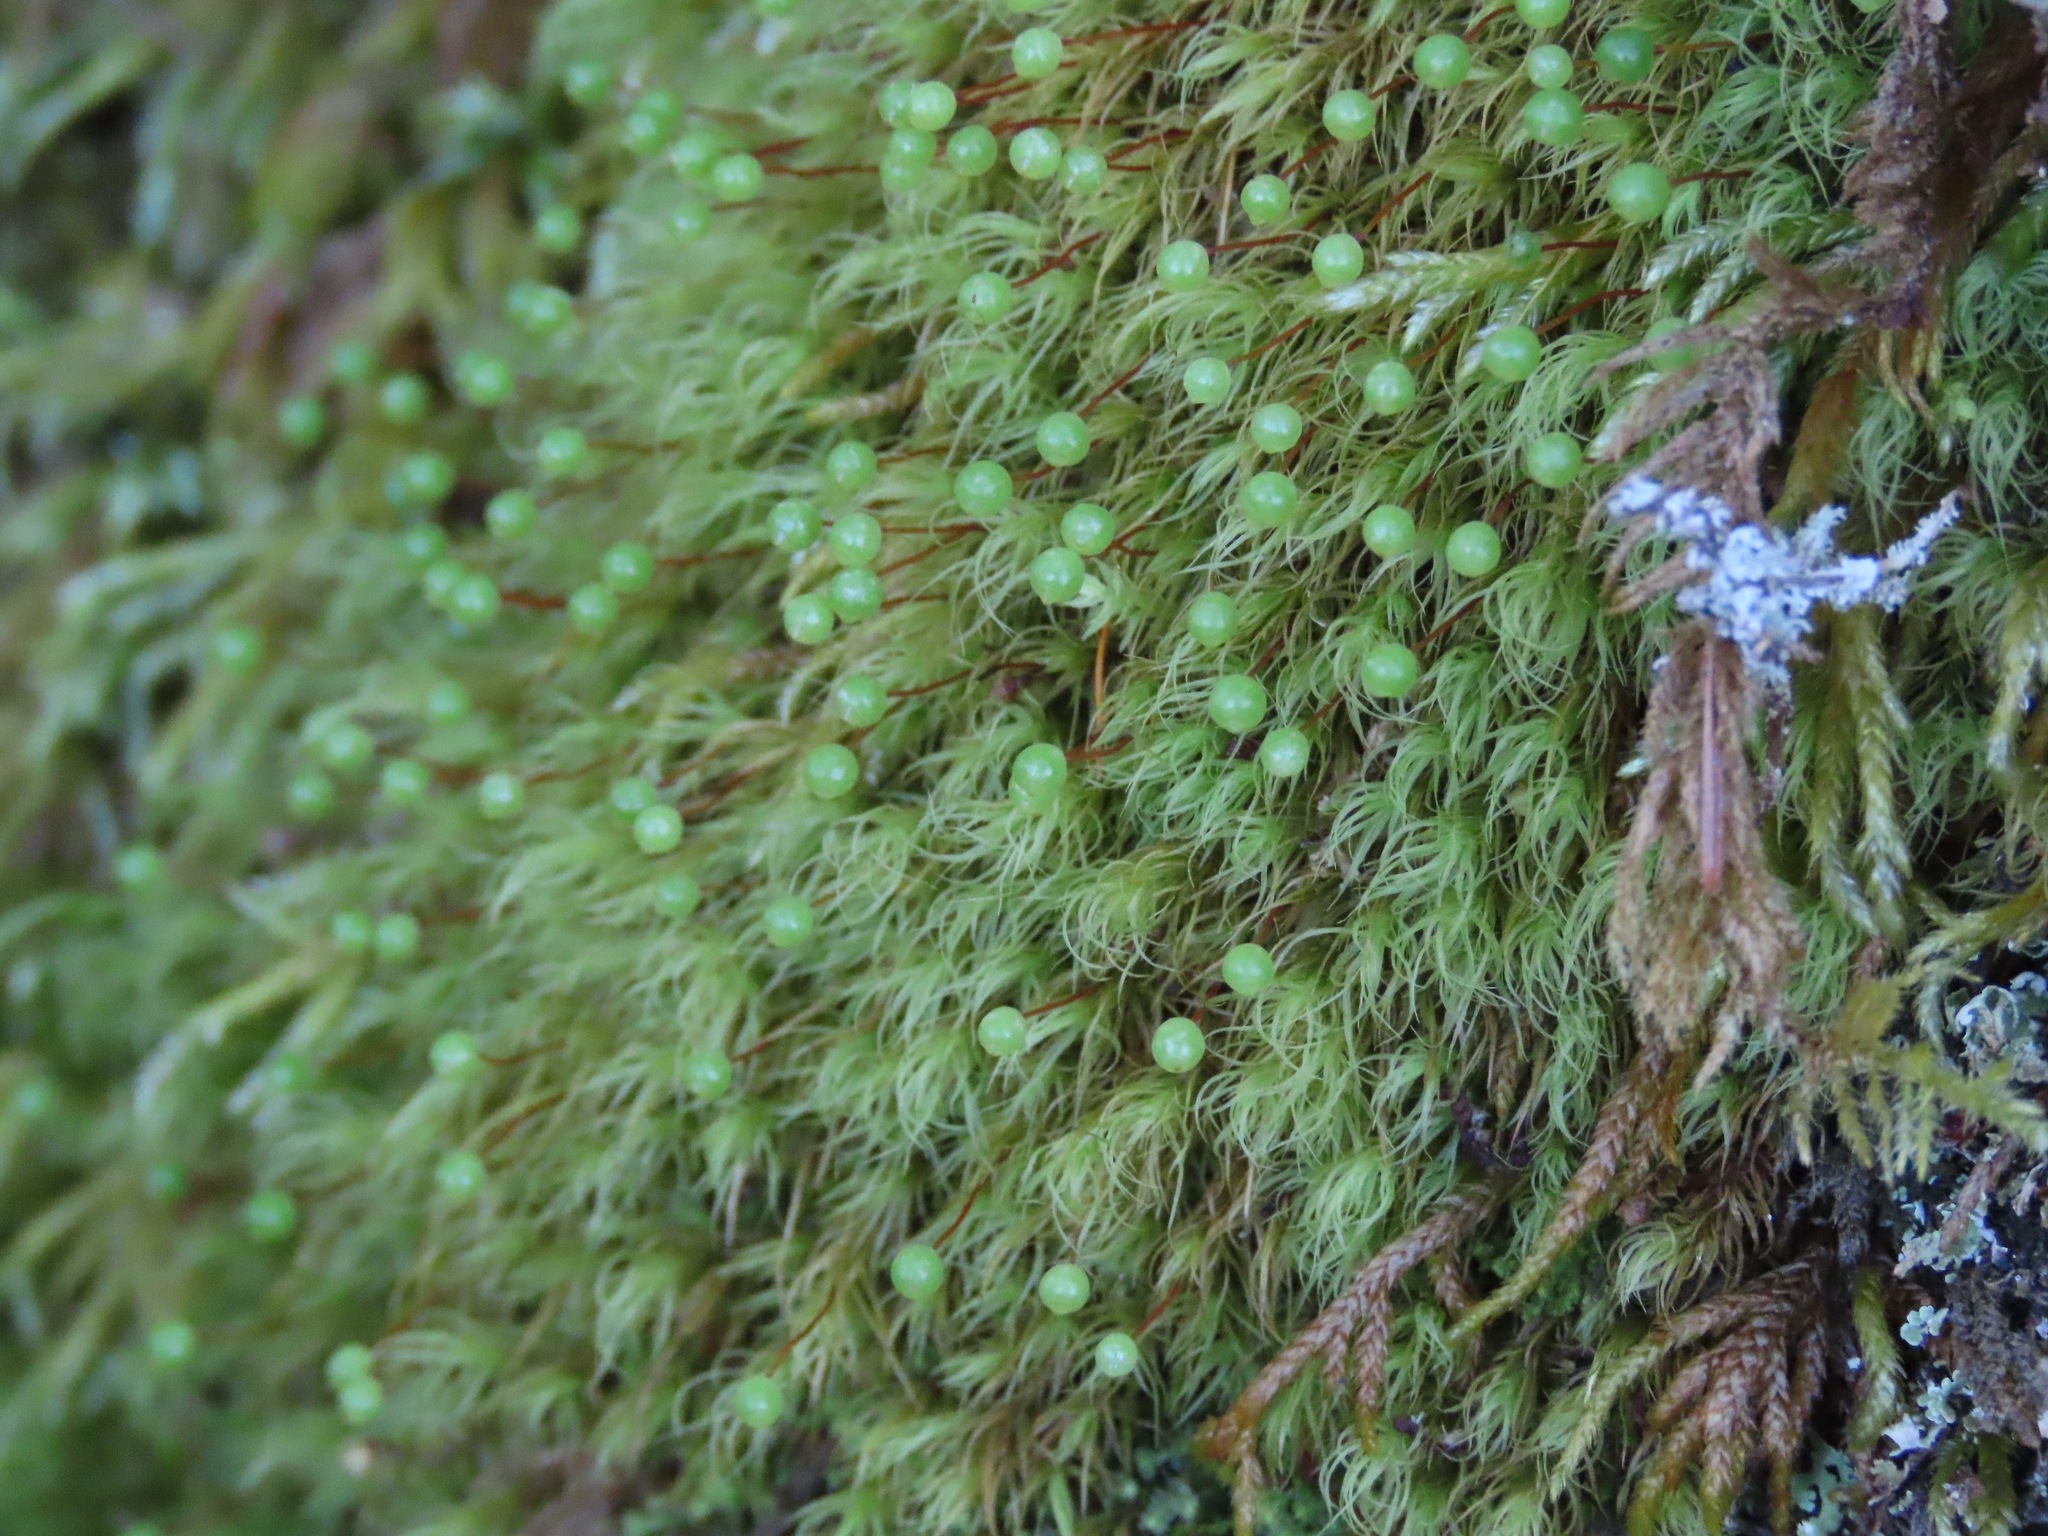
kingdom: Plantae
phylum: Bryophyta
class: Bryopsida
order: Bartramiales
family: Bartramiaceae
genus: Bartramia
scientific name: Bartramia ithyphylla
